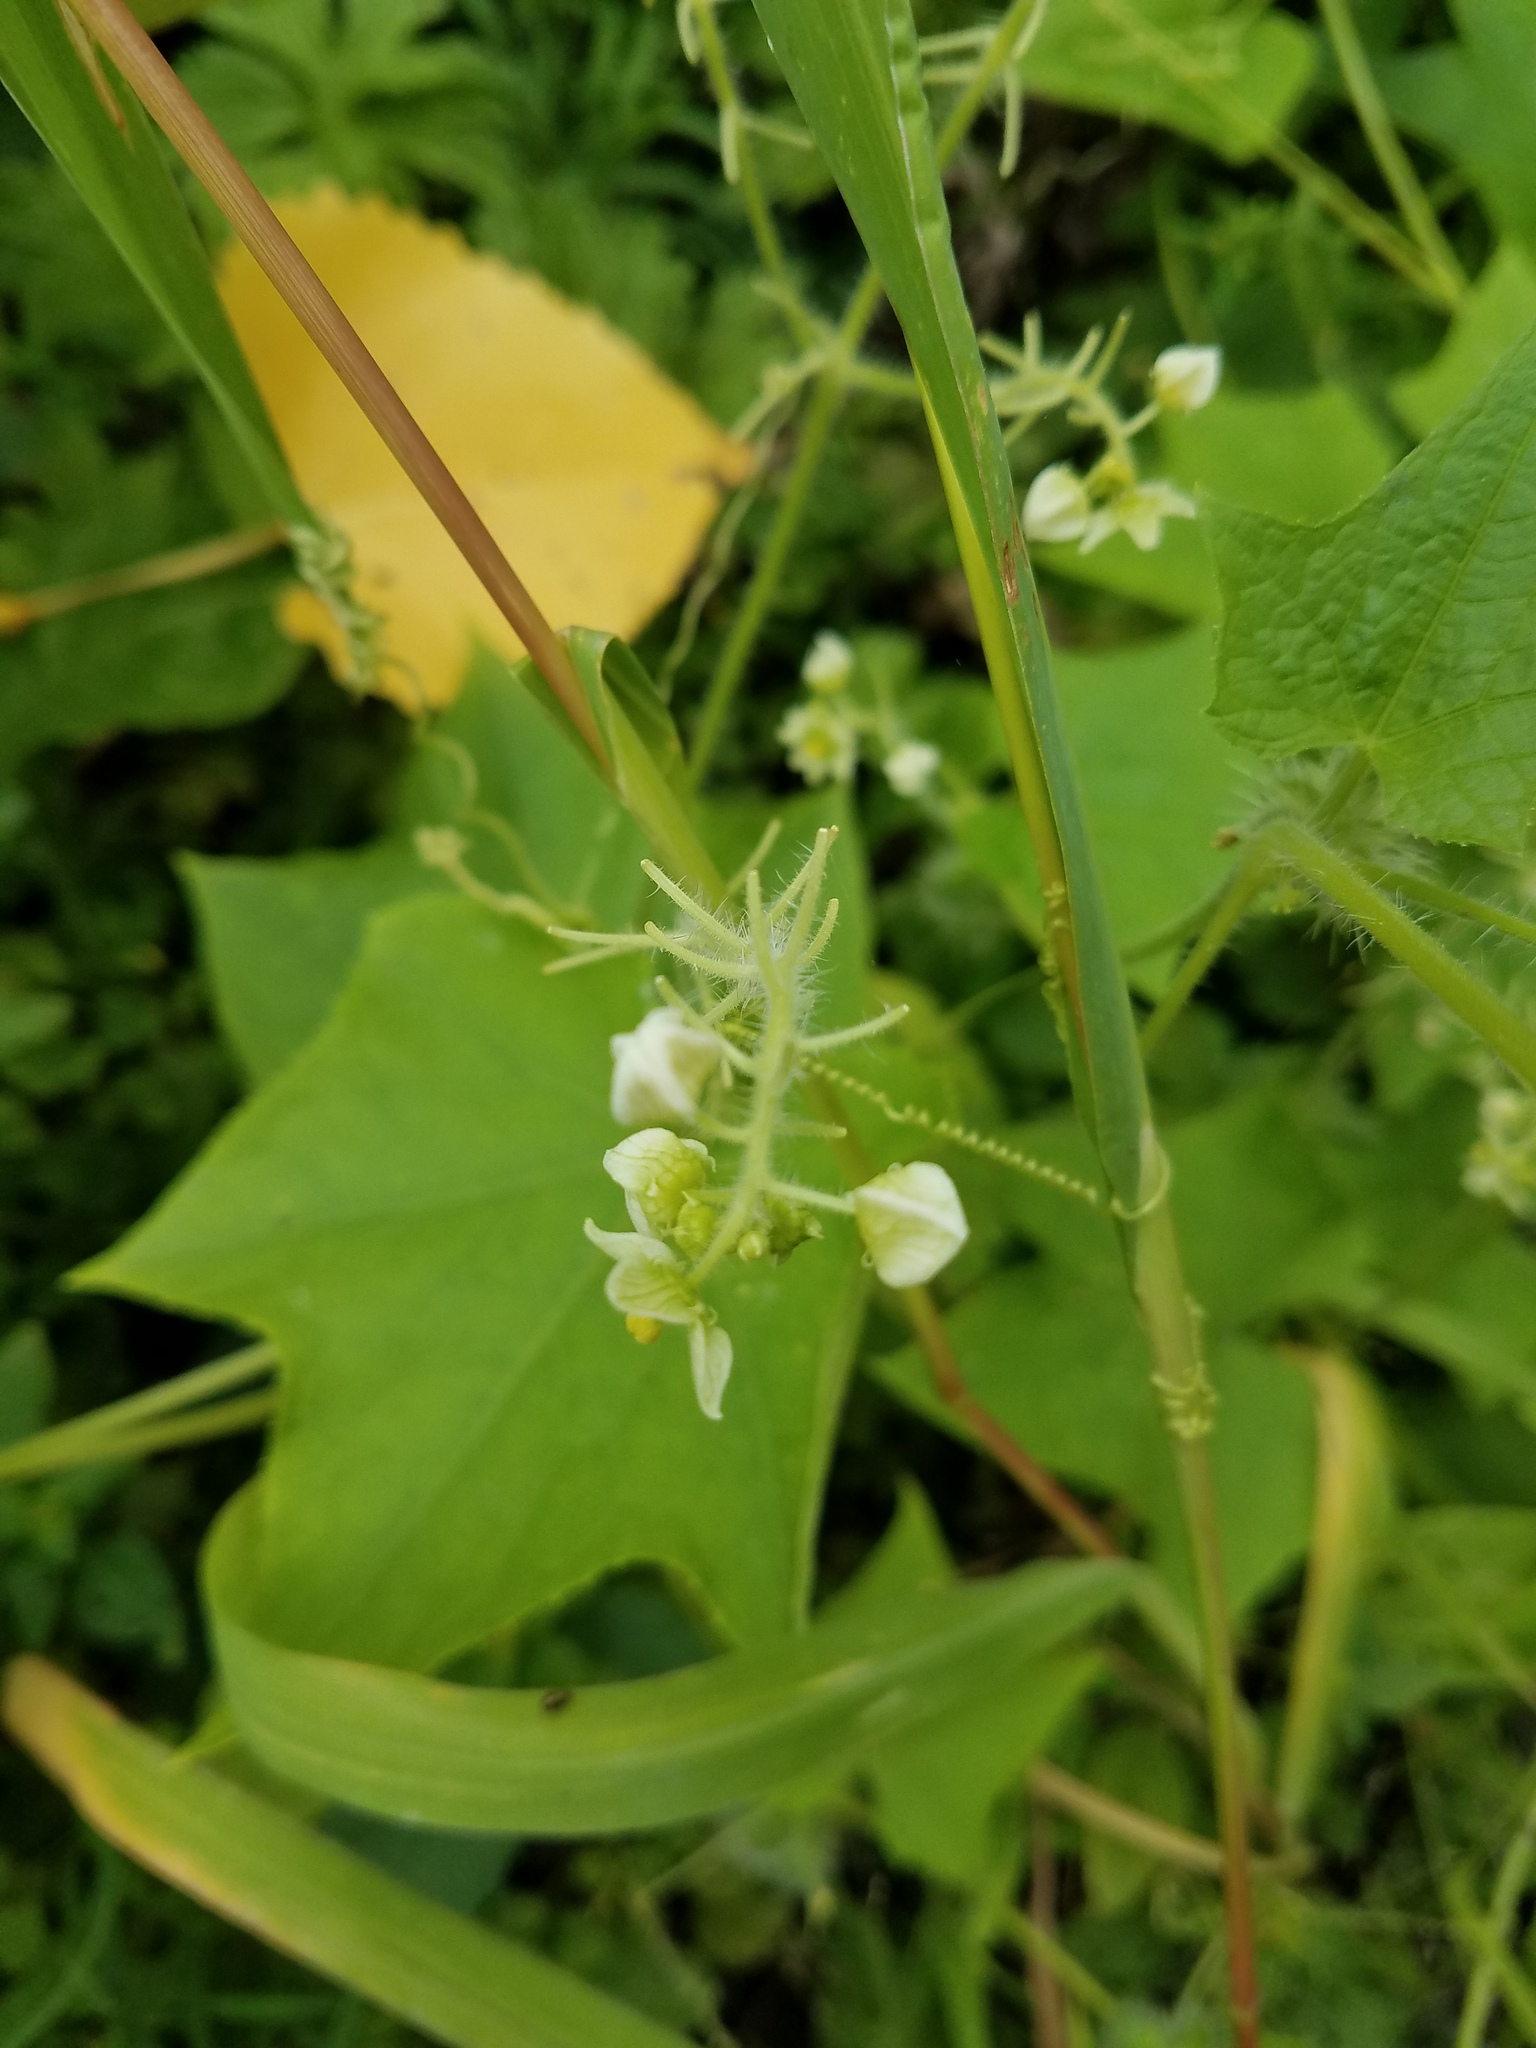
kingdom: Plantae
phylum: Tracheophyta
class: Magnoliopsida
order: Cucurbitales
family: Cucurbitaceae
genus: Sicyos
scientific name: Sicyos angulatus
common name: Angled burr cucumber
